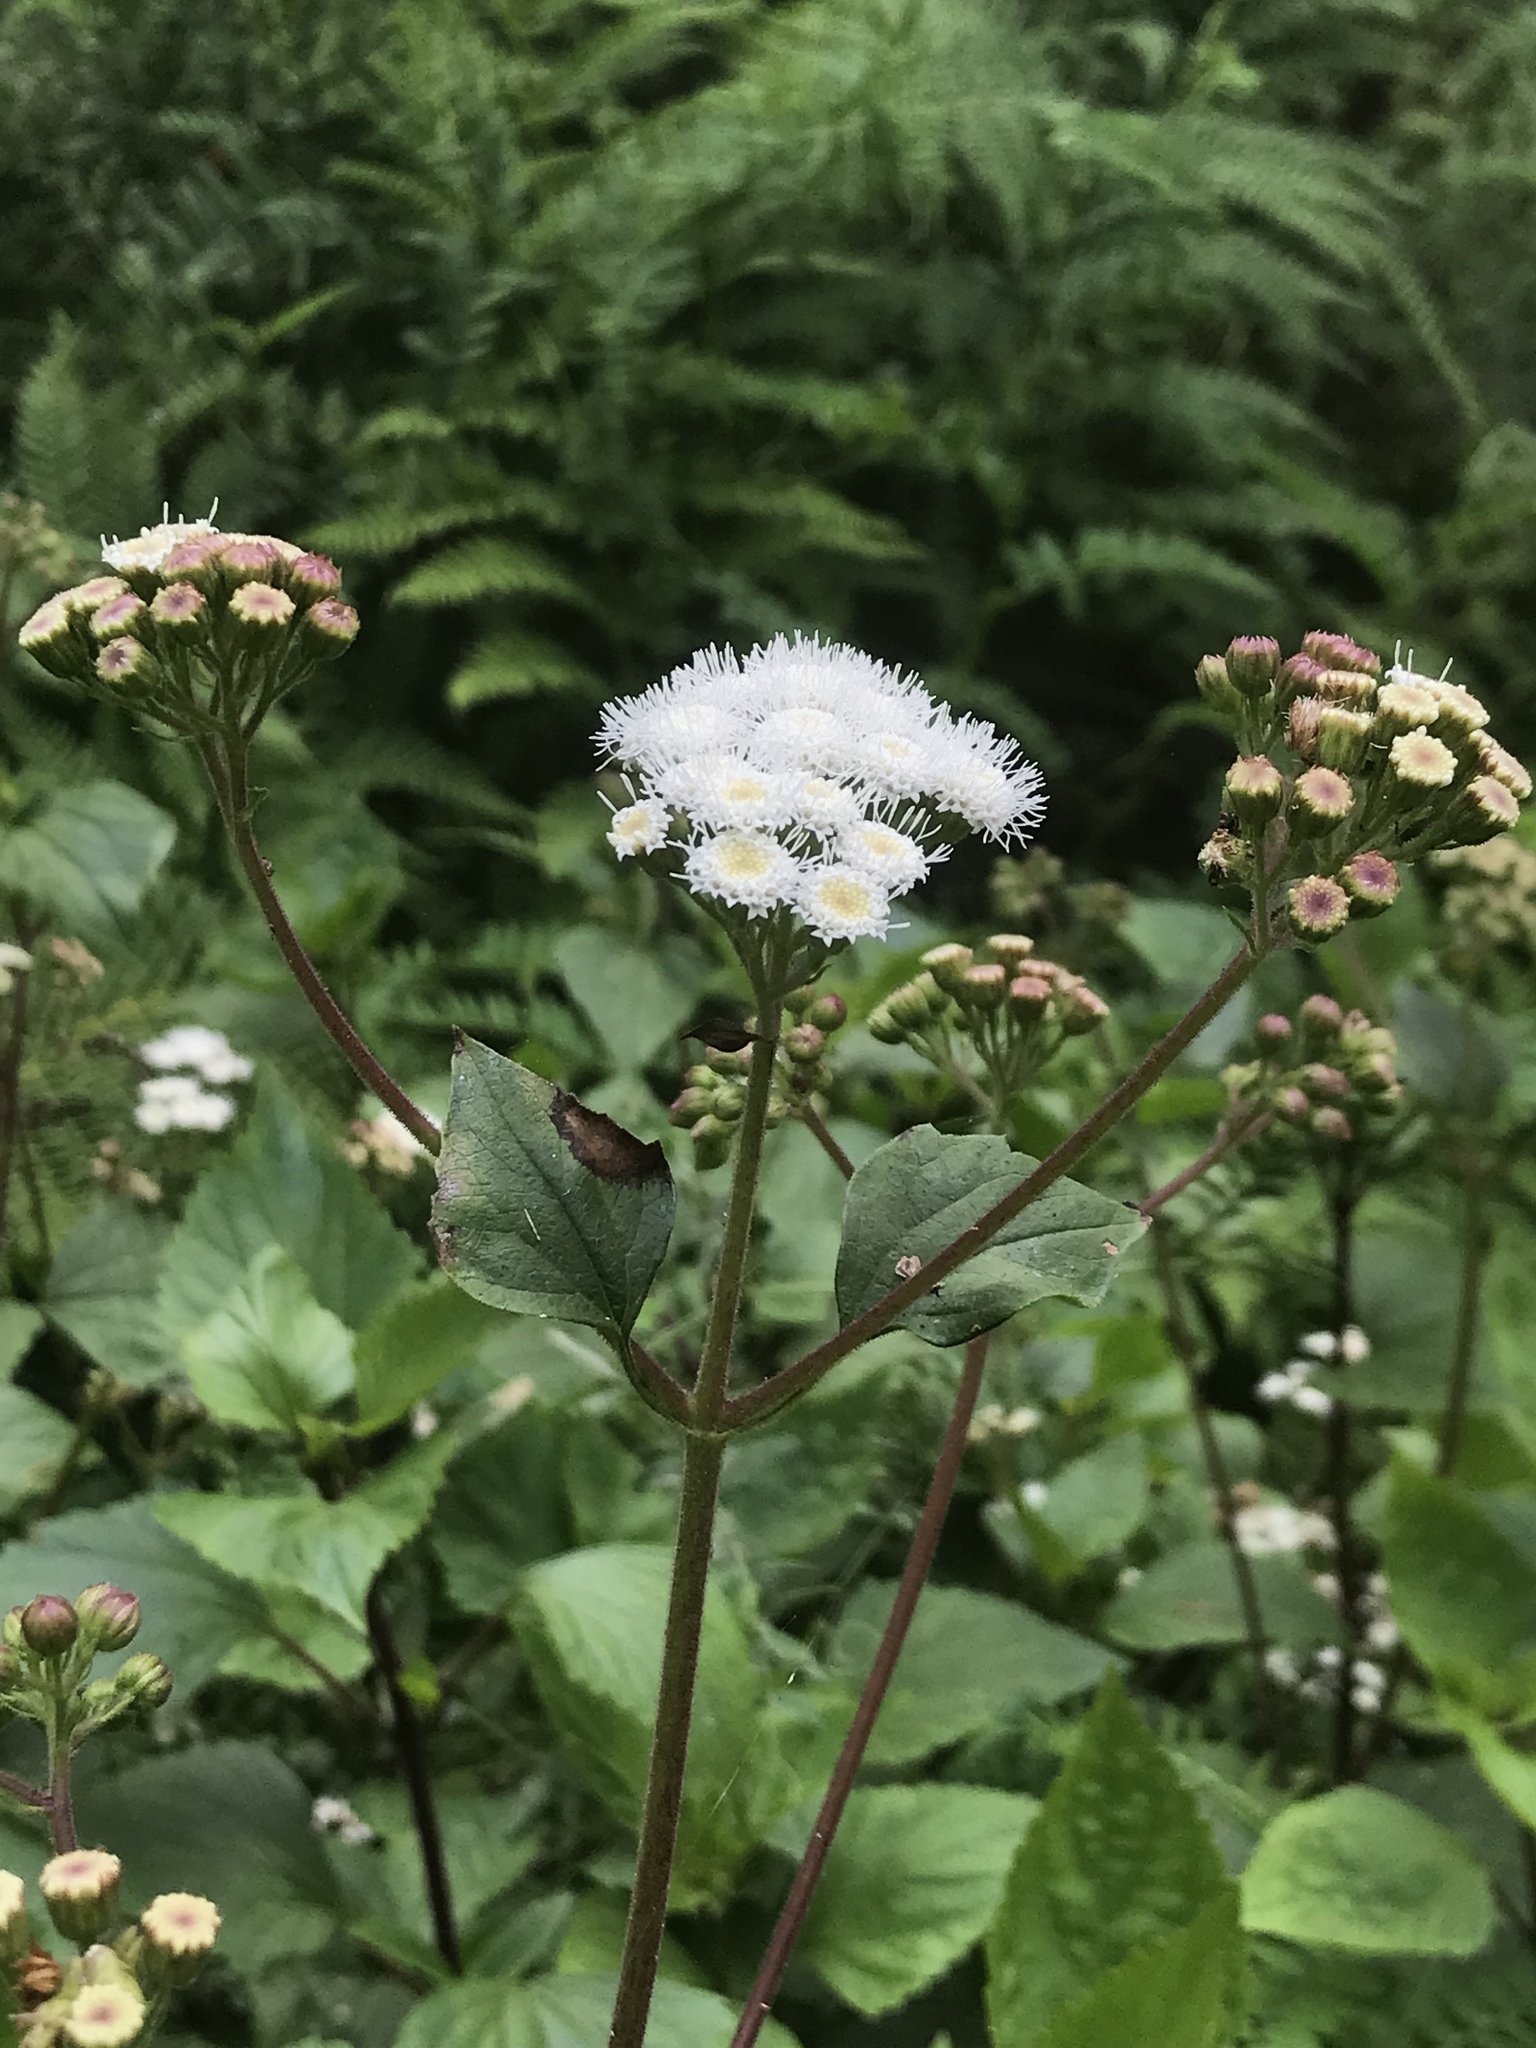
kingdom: Plantae
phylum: Tracheophyta
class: Magnoliopsida
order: Asterales
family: Asteraceae
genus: Ageratina
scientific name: Ageratina adenophora
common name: Sticky snakeroot
